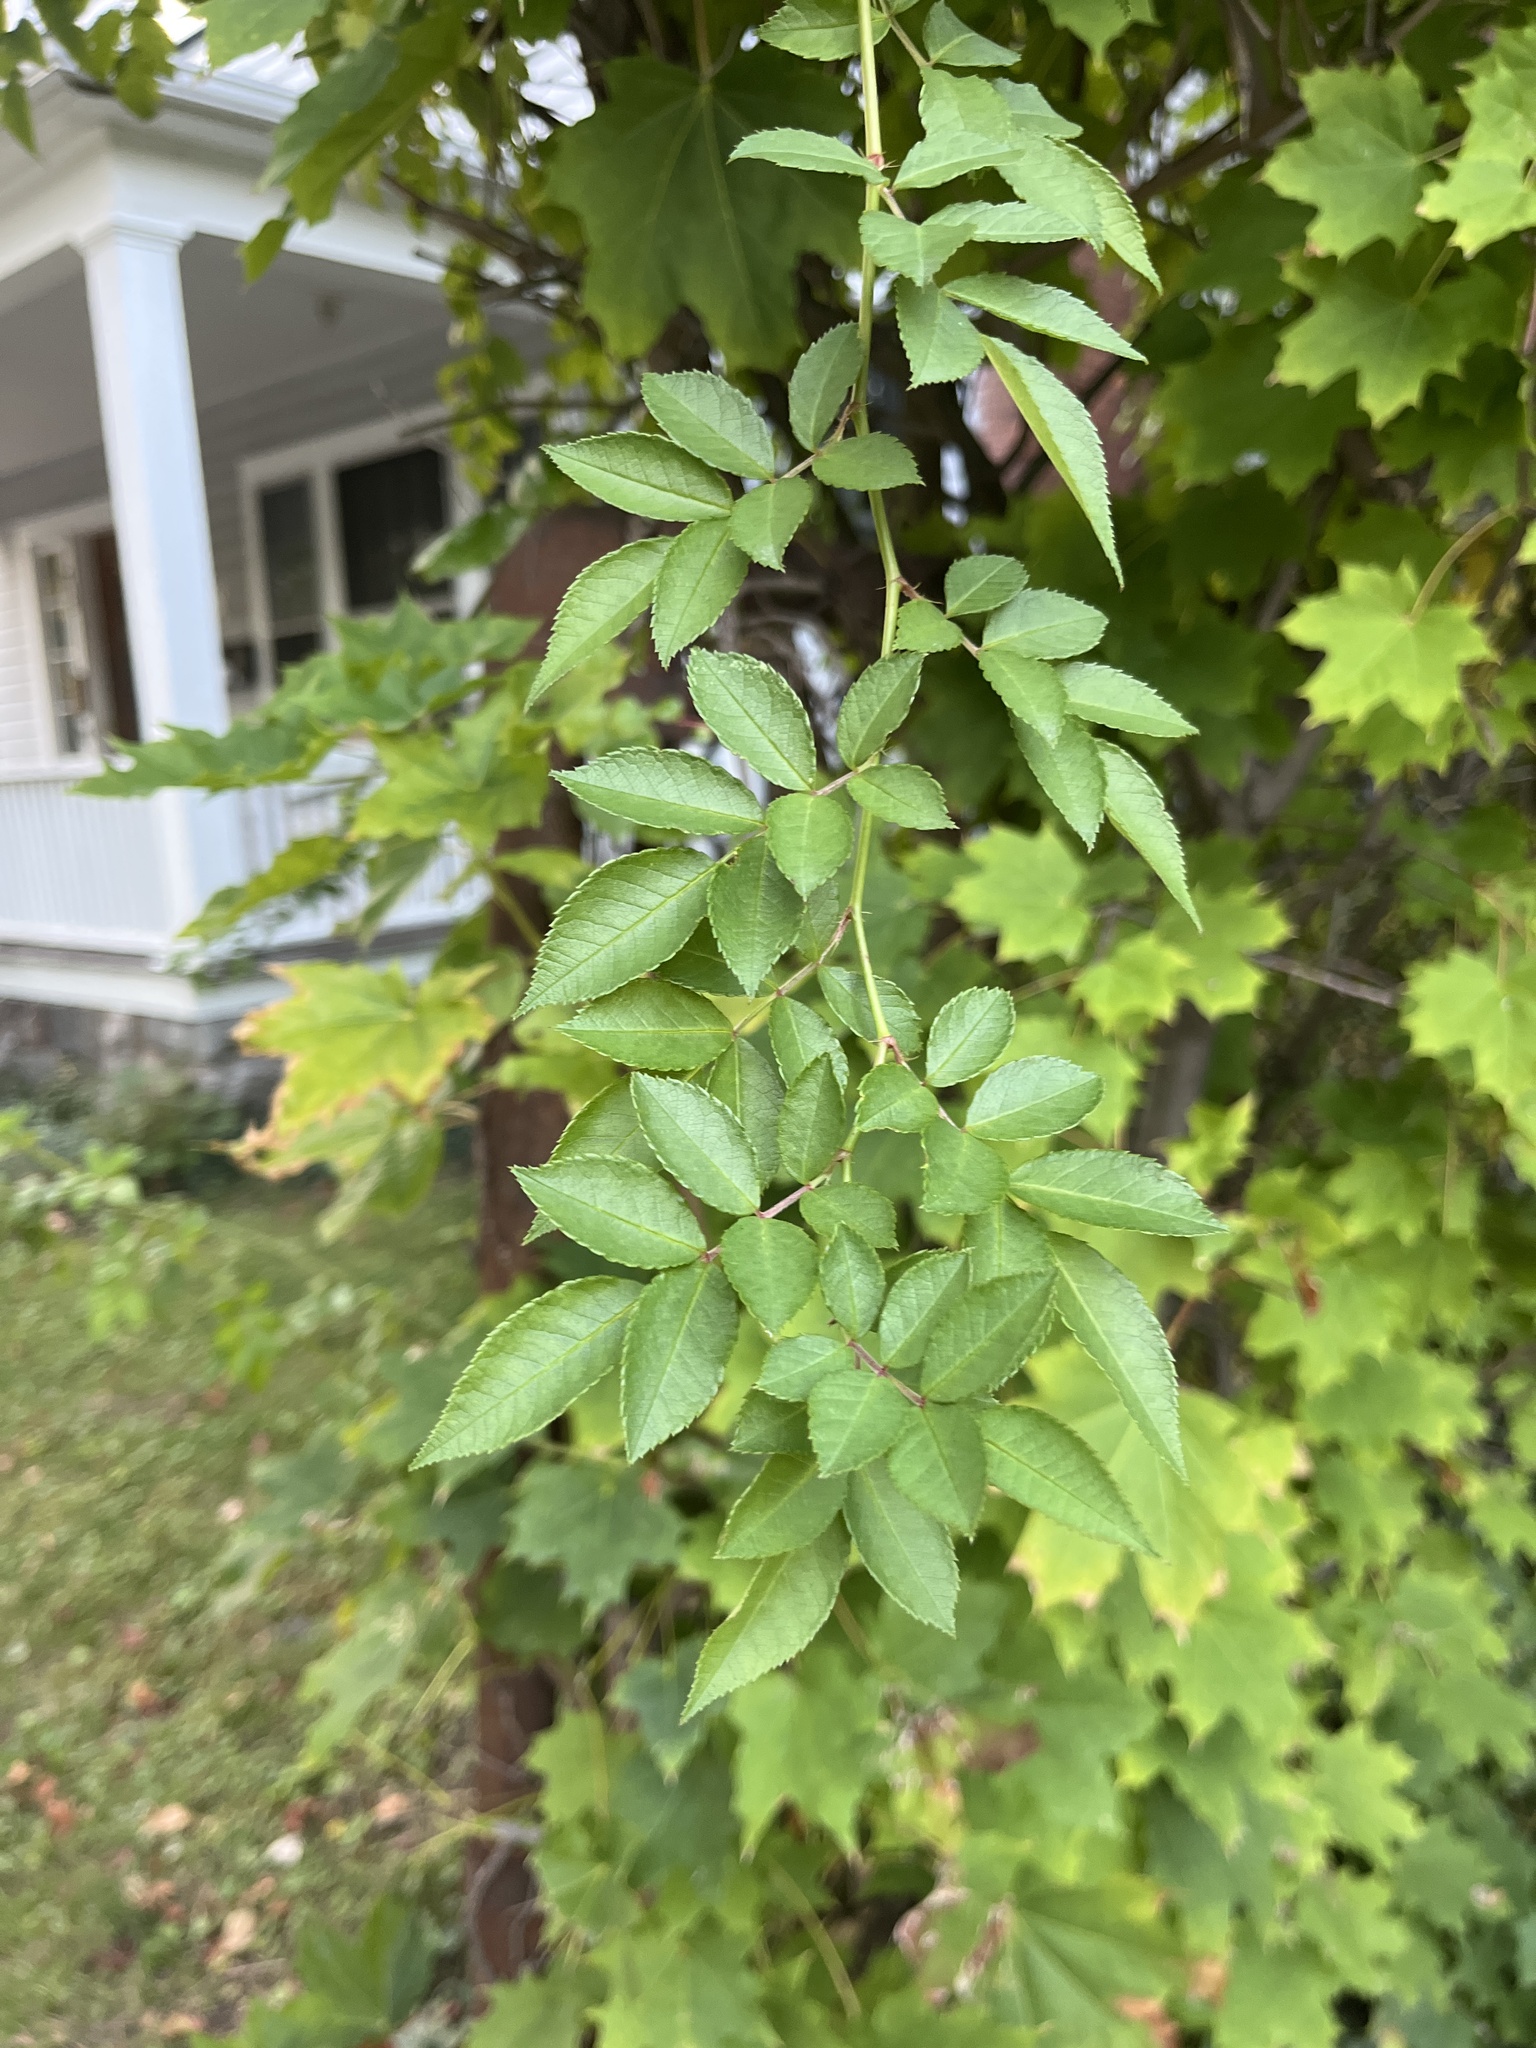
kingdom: Plantae
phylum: Tracheophyta
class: Magnoliopsida
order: Rosales
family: Rosaceae
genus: Rosa
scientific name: Rosa multiflora
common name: Multiflora rose
